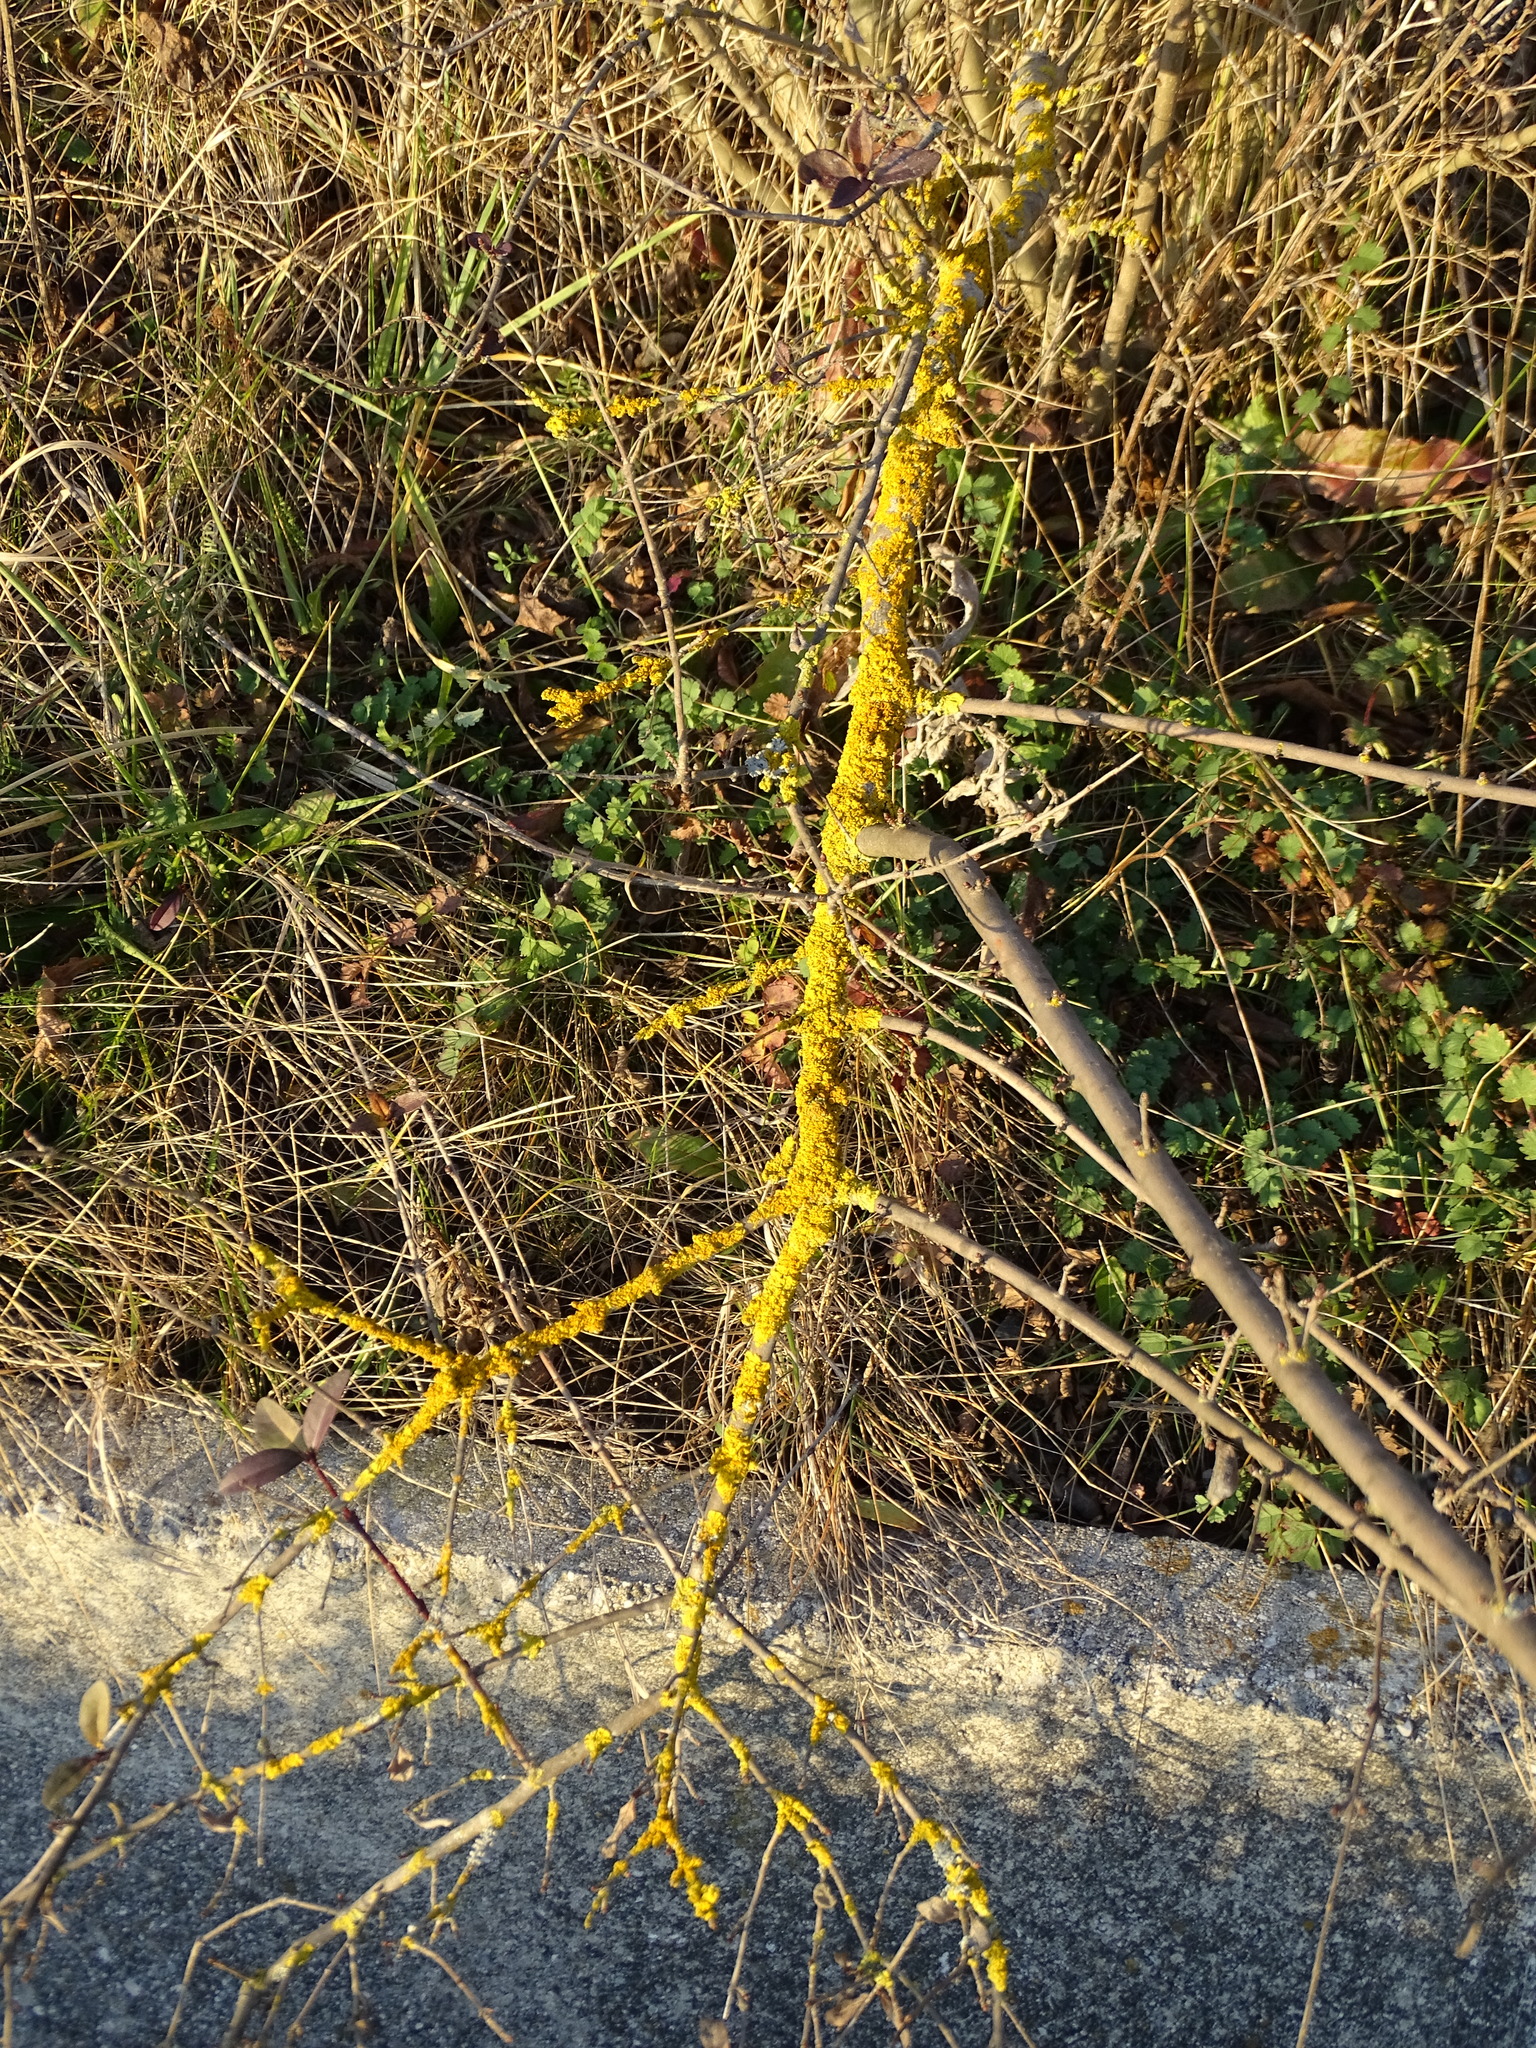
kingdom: Fungi
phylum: Ascomycota
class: Lecanoromycetes
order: Teloschistales
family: Teloschistaceae
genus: Xanthoria
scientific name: Xanthoria parietina
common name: Common orange lichen
